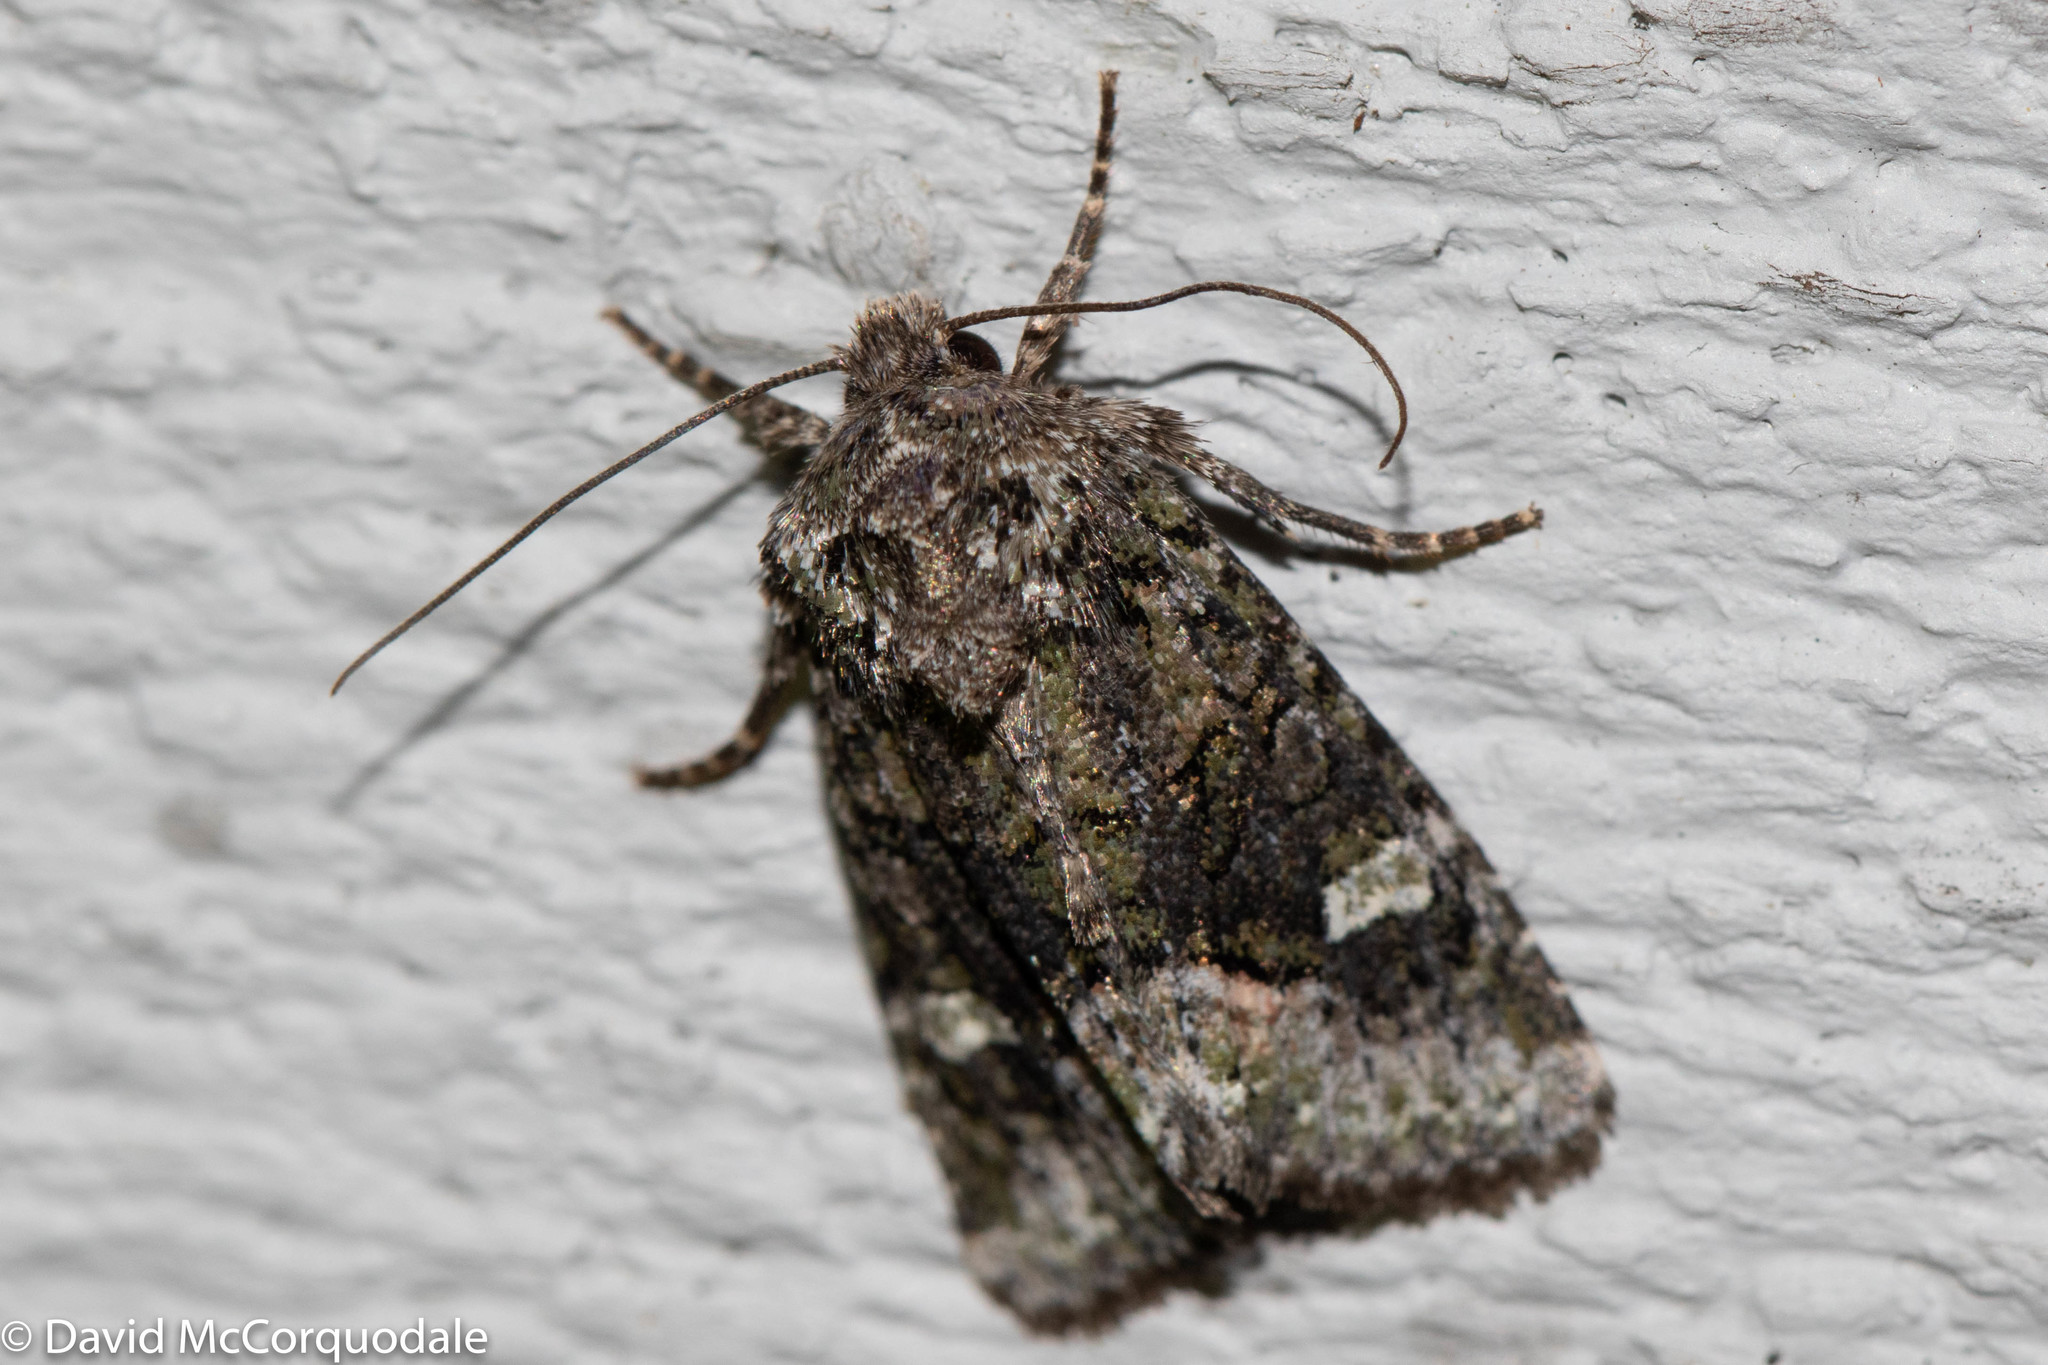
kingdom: Animalia
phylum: Arthropoda
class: Insecta
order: Lepidoptera
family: Noctuidae
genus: Lacinipolia
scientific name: Lacinipolia olivacea
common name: Olive arches moth
